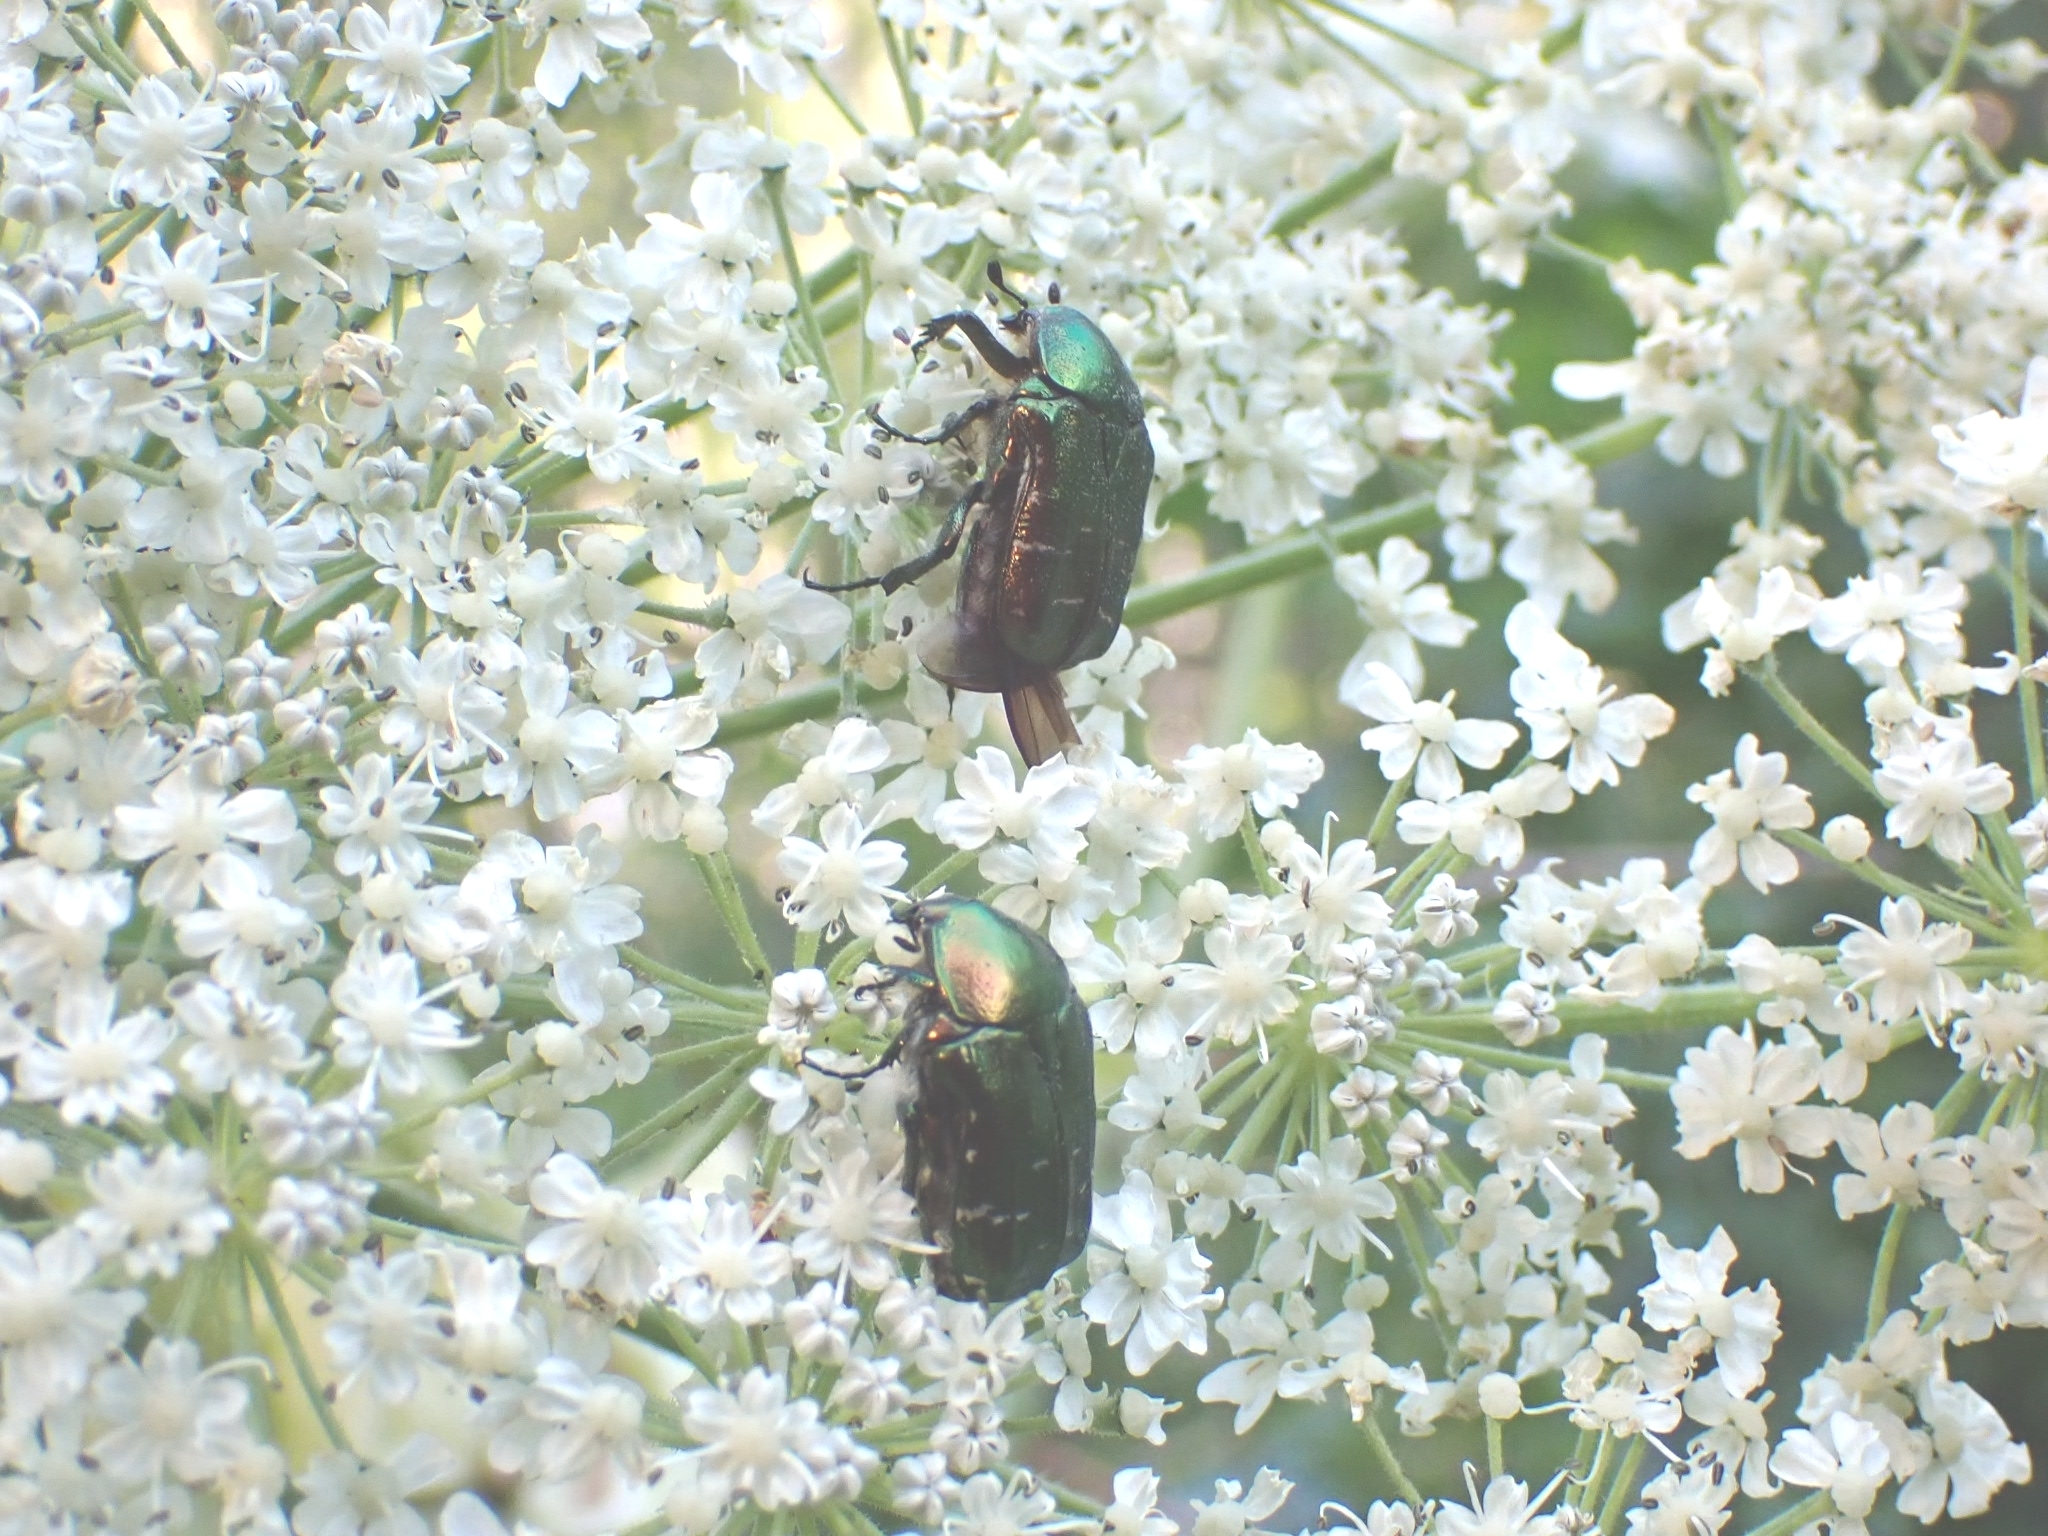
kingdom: Animalia
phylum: Arthropoda
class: Insecta
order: Coleoptera
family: Scarabaeidae
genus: Cetonia
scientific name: Cetonia aurata
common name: Rose chafer
